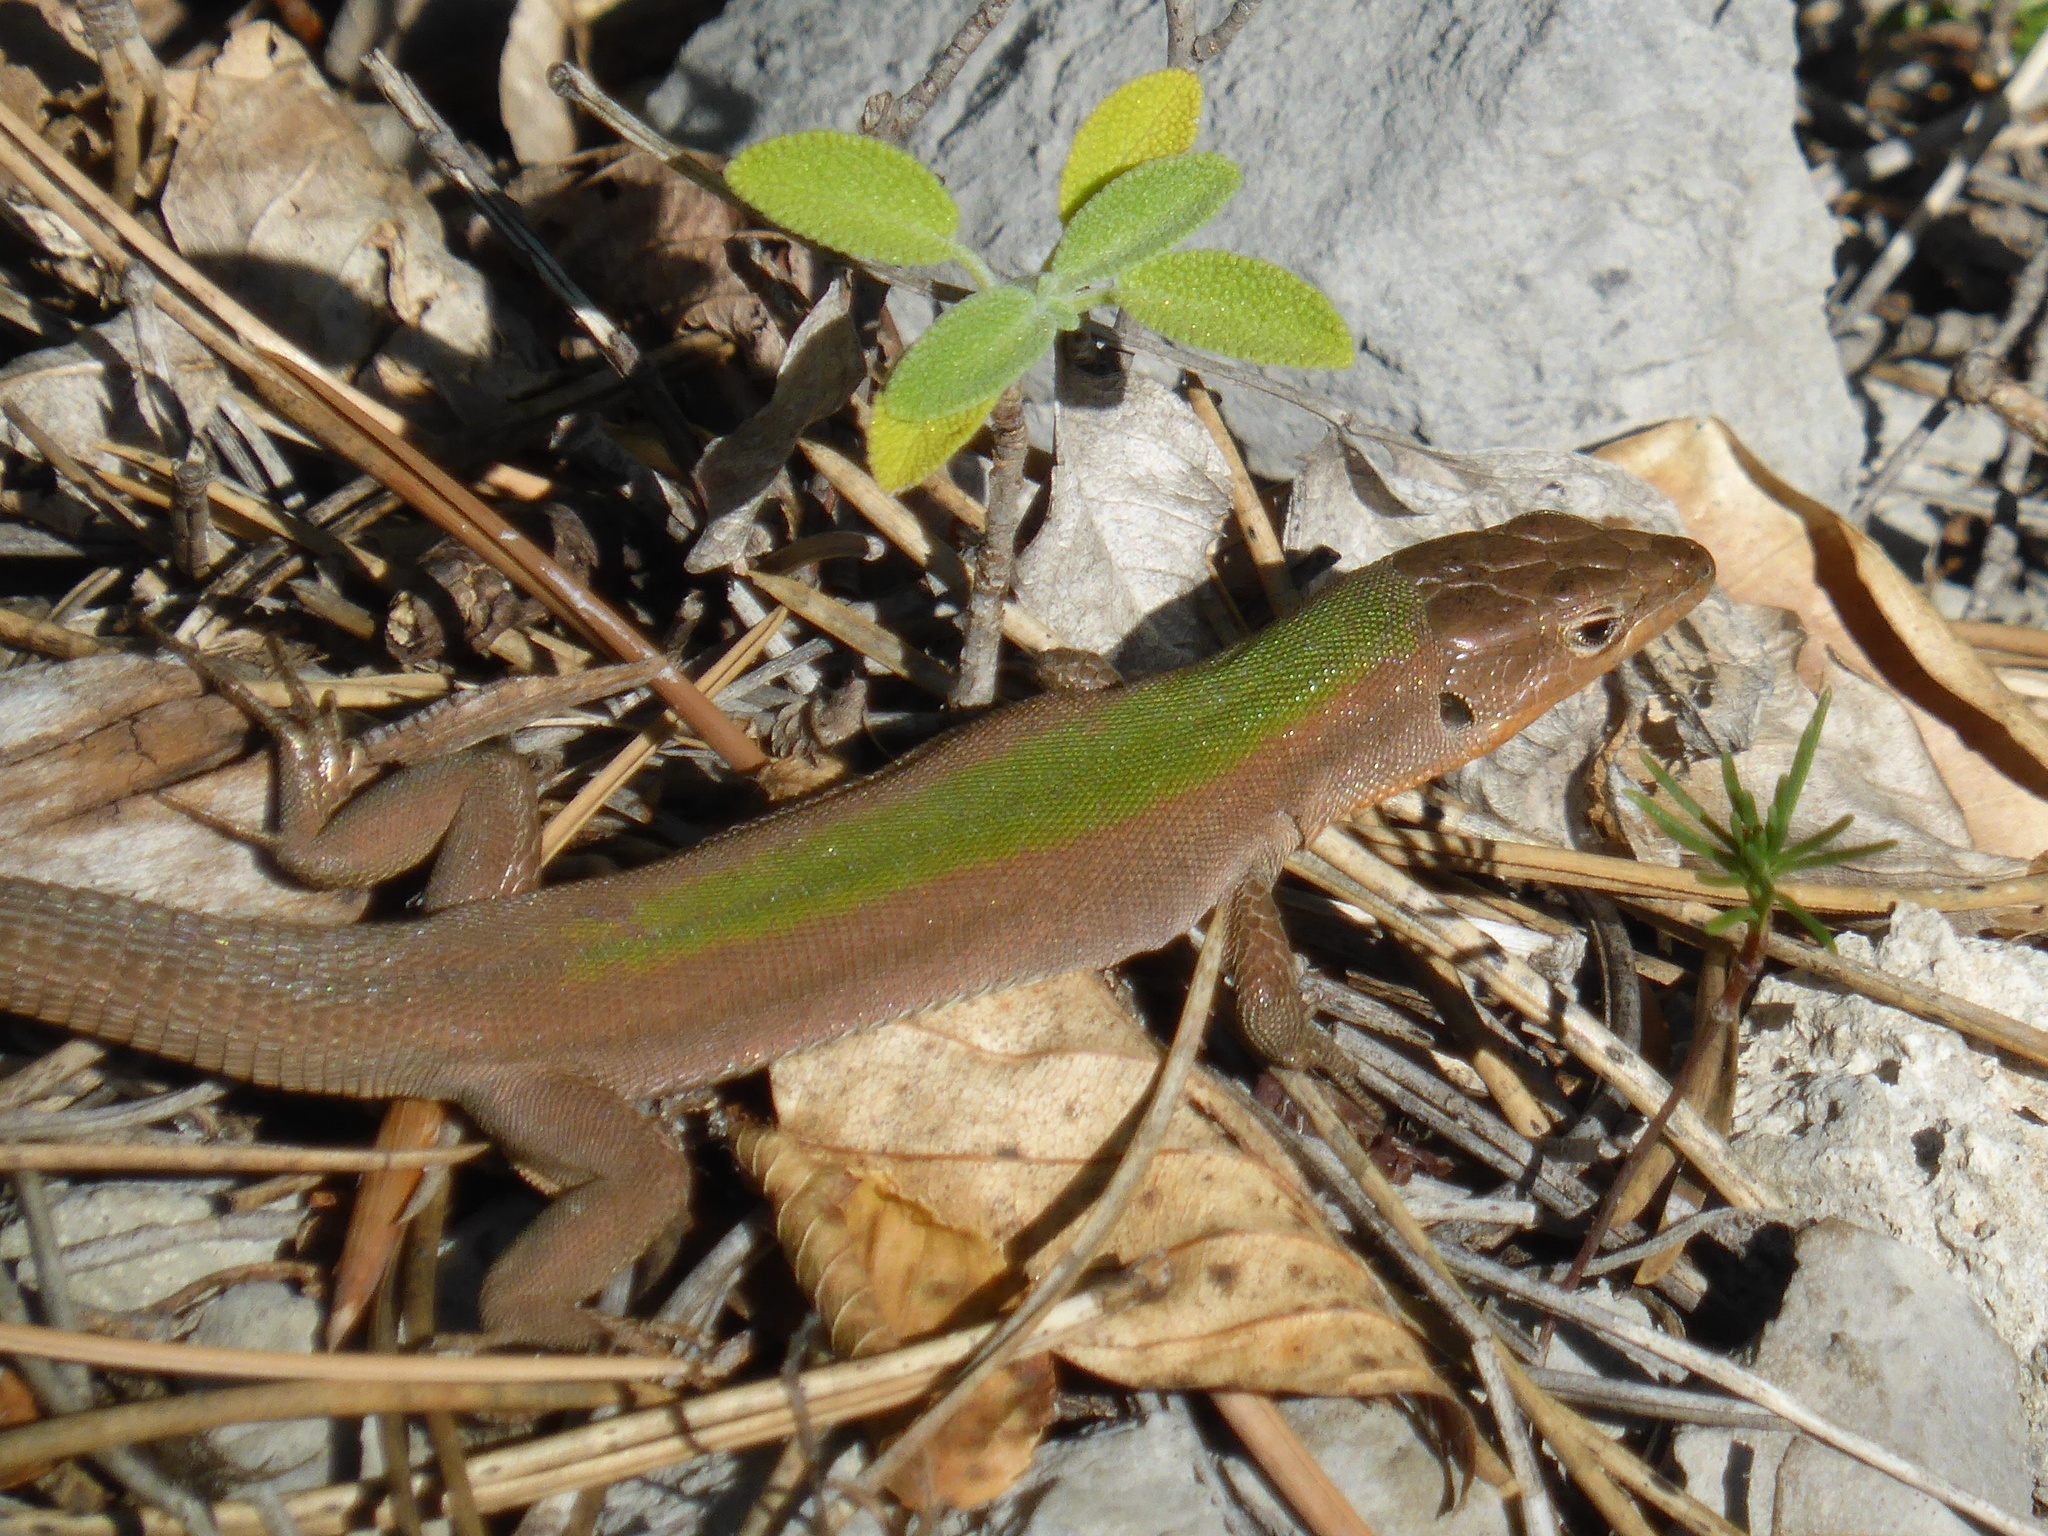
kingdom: Animalia
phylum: Chordata
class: Squamata
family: Lacertidae
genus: Podarcis
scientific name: Podarcis melisellensis
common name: Dalmatian wall lizard
